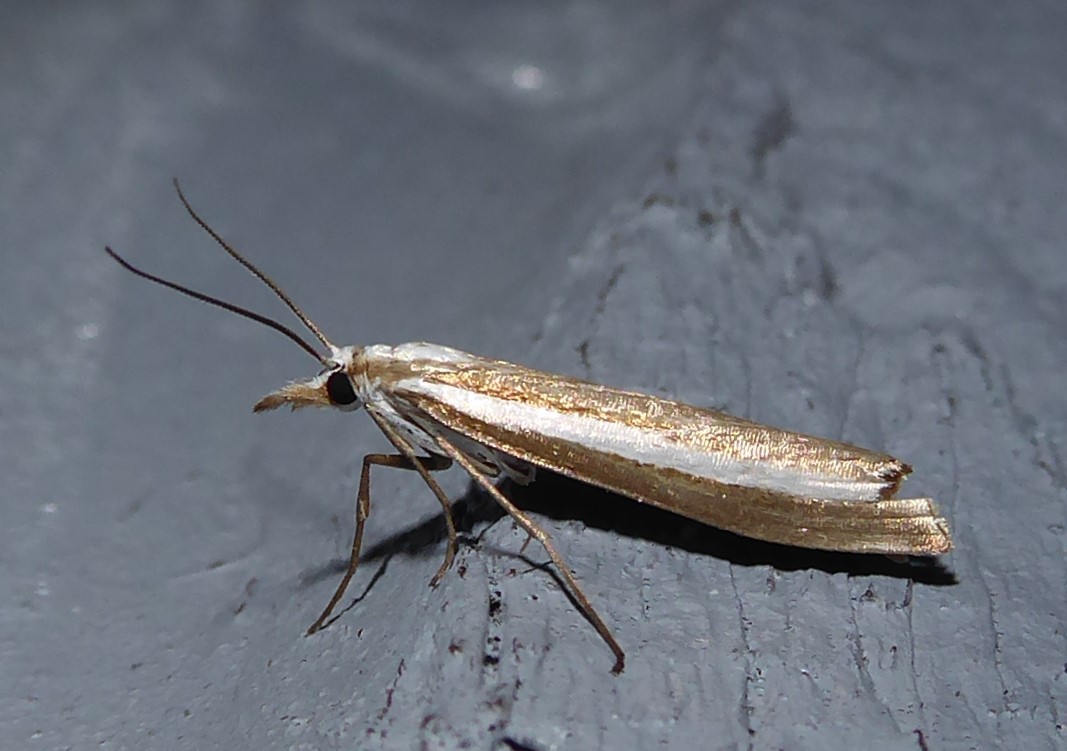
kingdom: Animalia
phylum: Arthropoda
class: Insecta
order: Lepidoptera
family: Crambidae
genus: Orocrambus
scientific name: Orocrambus vittellus
